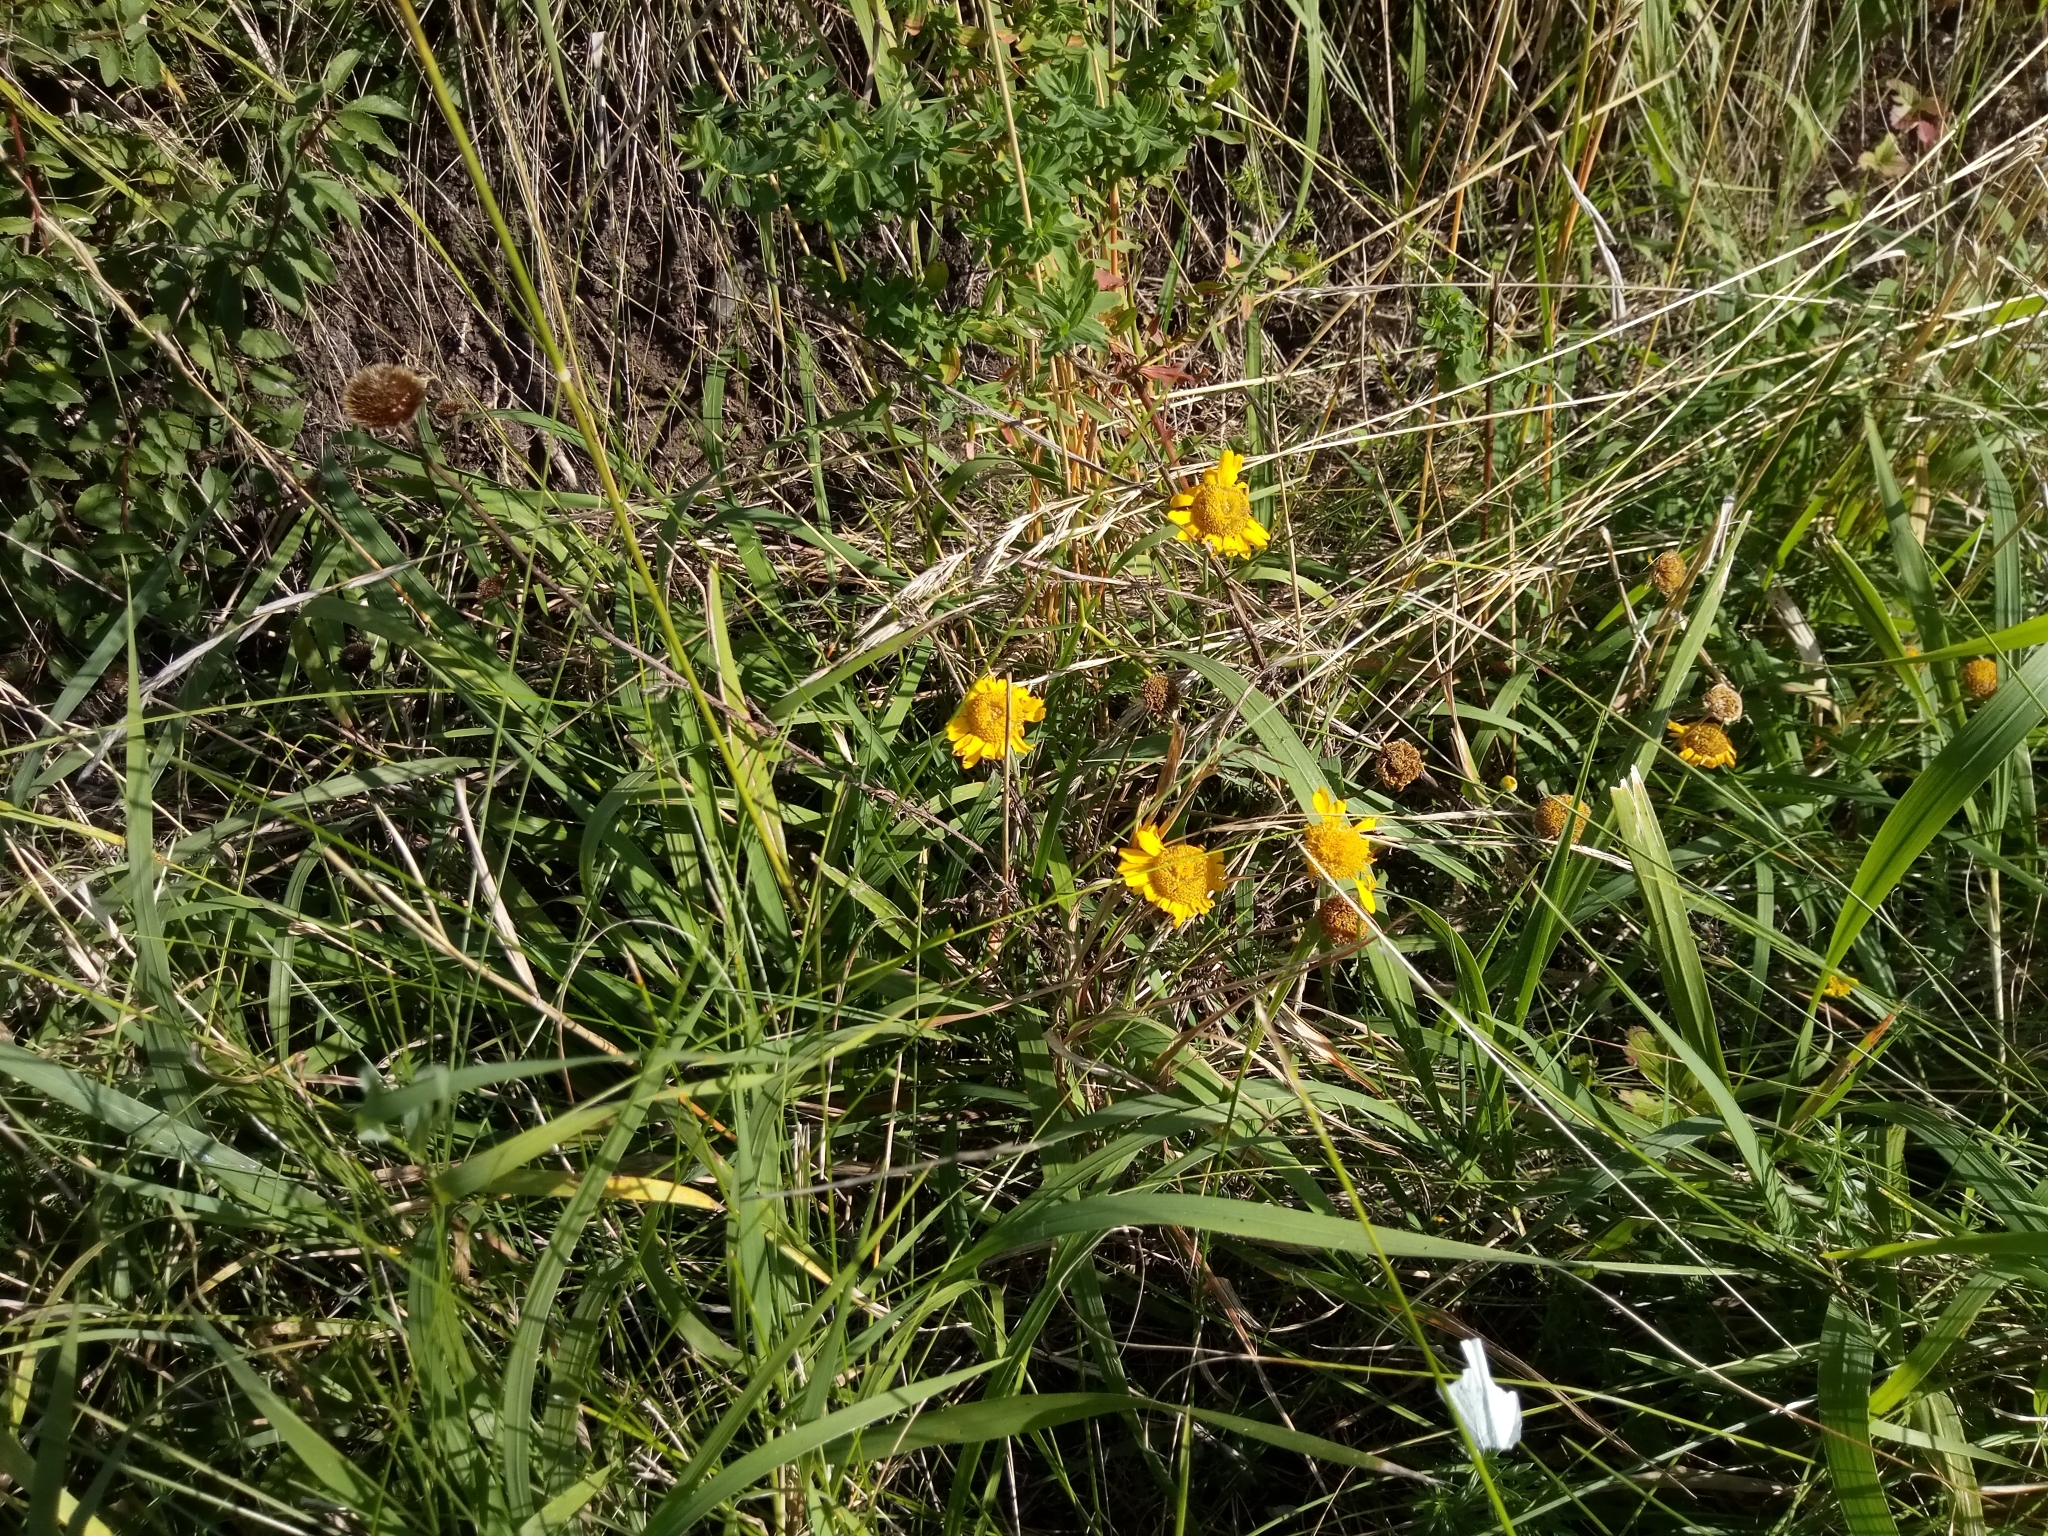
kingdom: Plantae
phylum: Tracheophyta
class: Magnoliopsida
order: Asterales
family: Asteraceae
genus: Cota
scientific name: Cota tinctoria
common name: Golden chamomile
